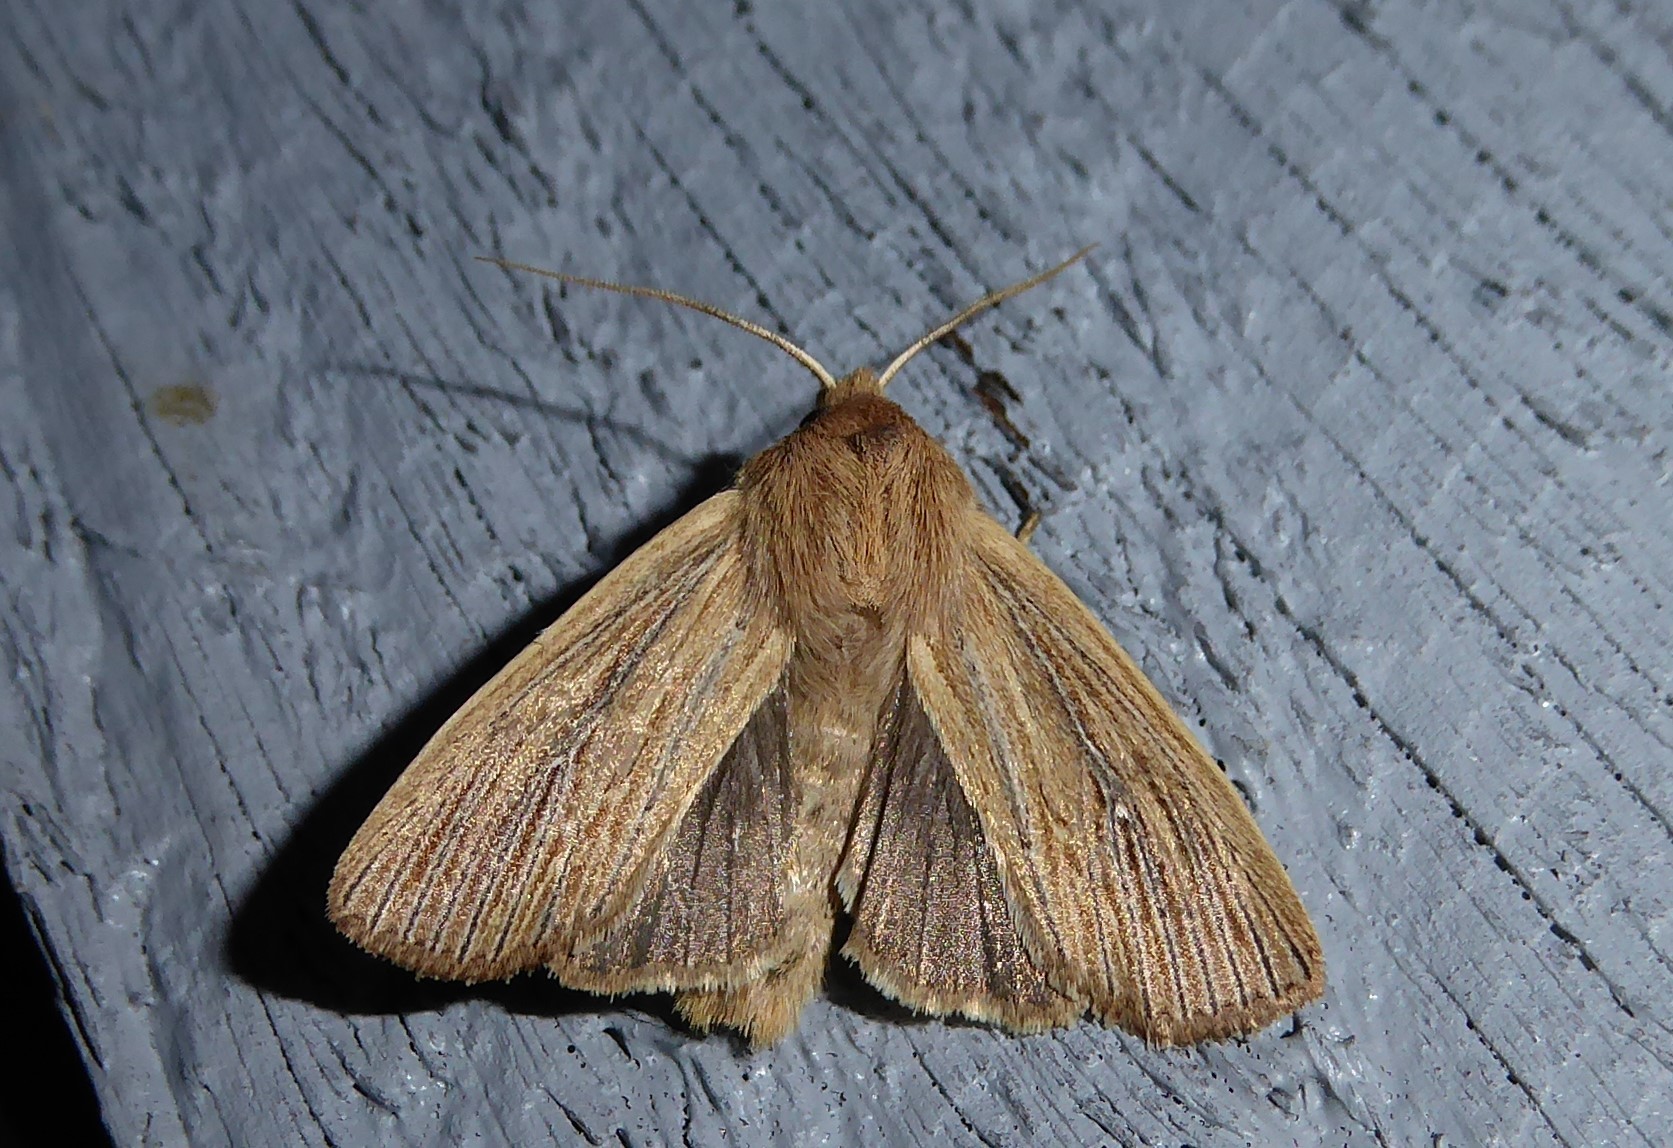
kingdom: Animalia
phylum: Arthropoda
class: Insecta
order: Lepidoptera
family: Noctuidae
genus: Ichneutica
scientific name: Ichneutica arotis
